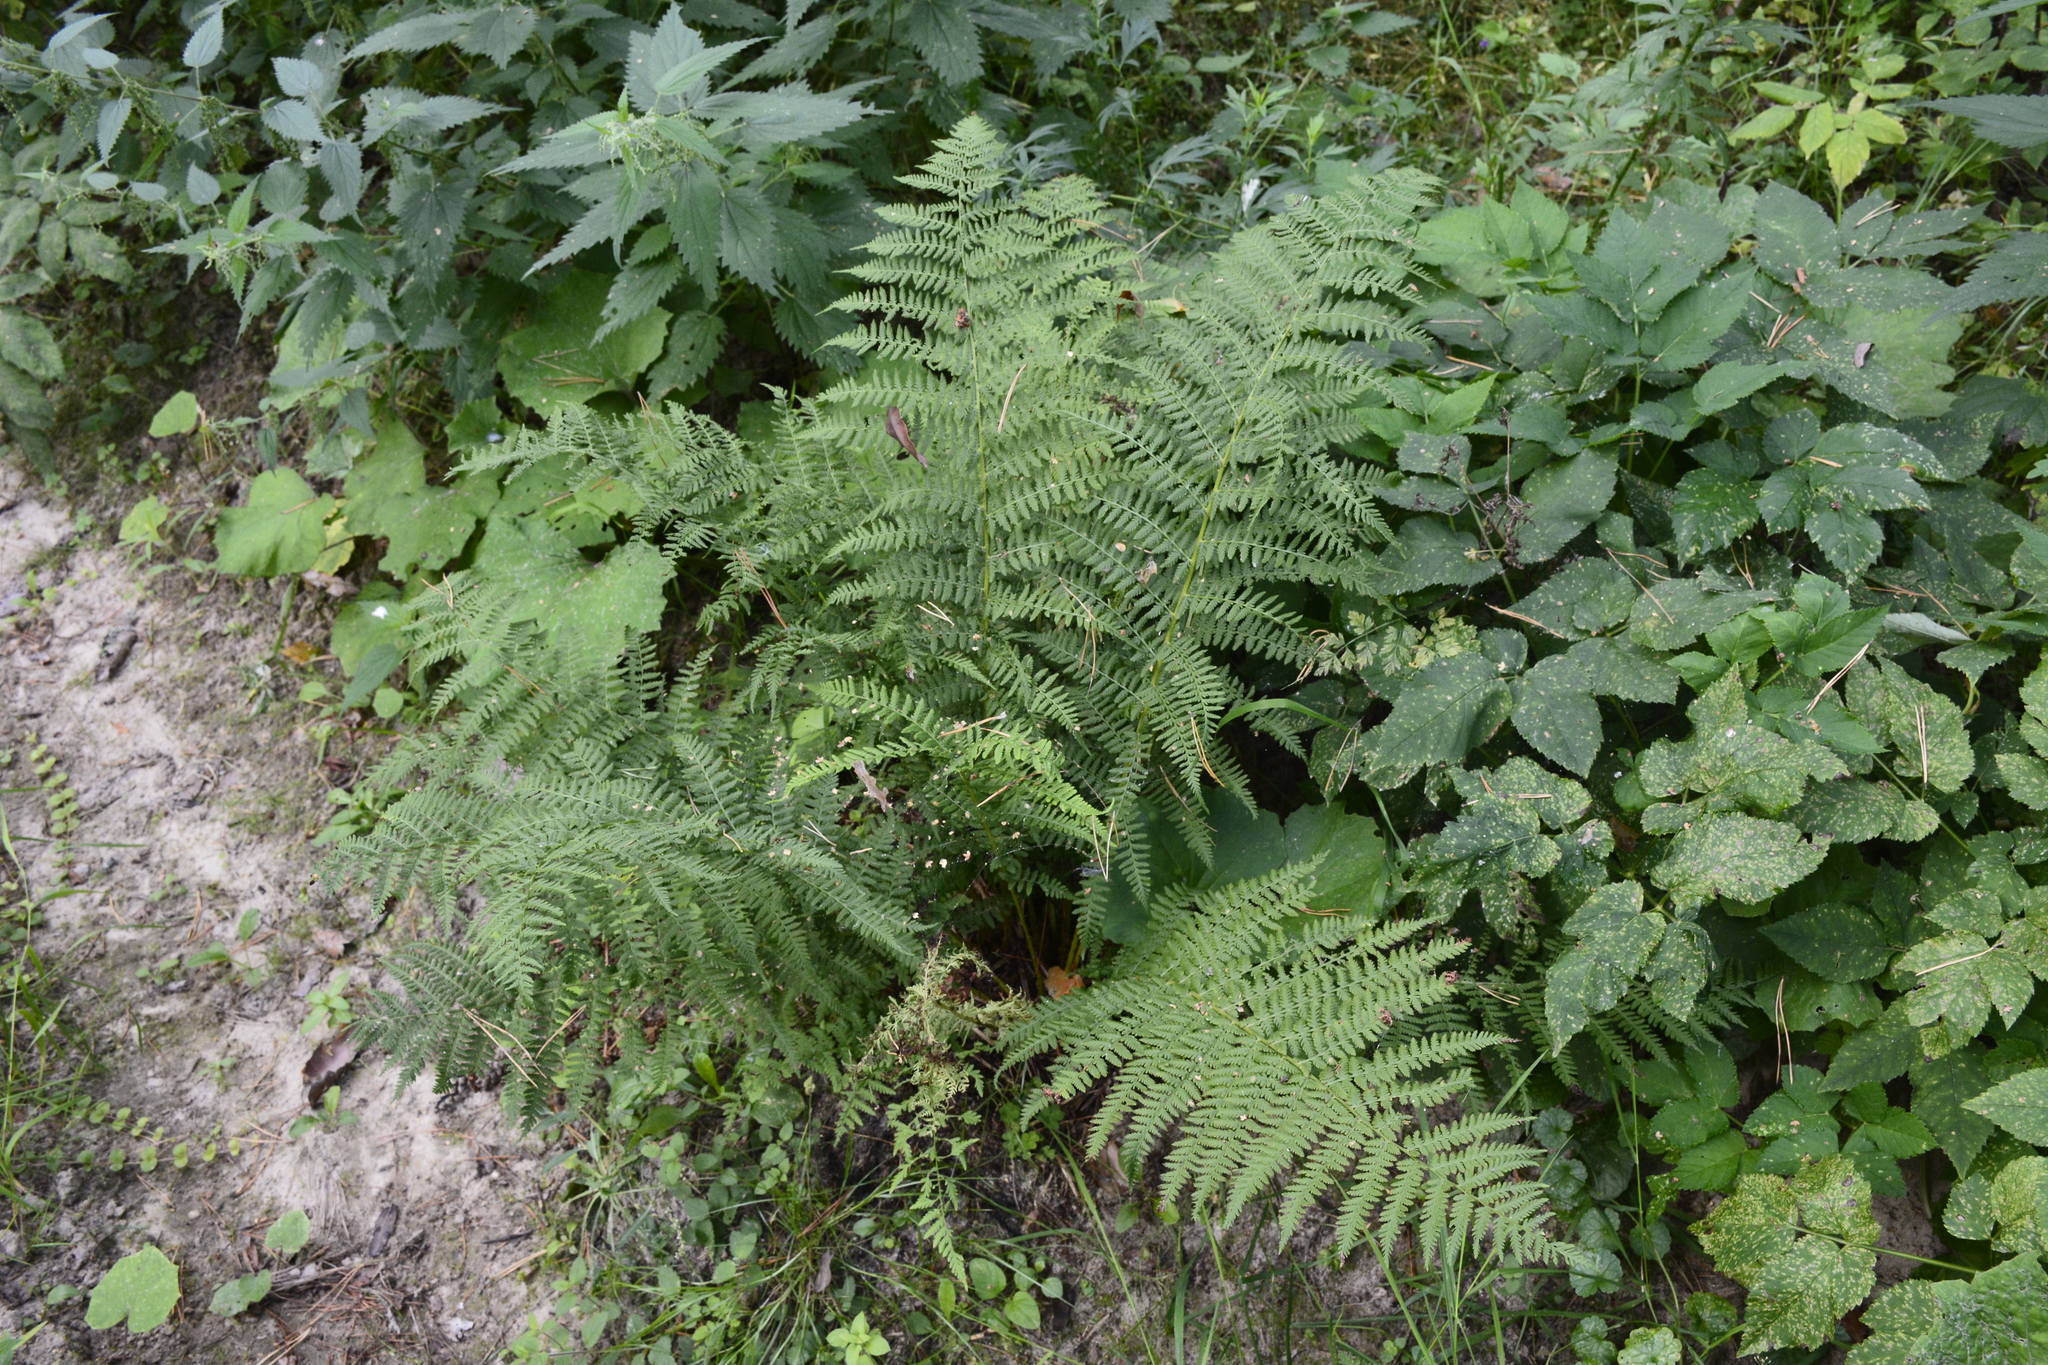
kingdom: Plantae
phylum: Tracheophyta
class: Polypodiopsida
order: Polypodiales
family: Athyriaceae
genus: Athyrium
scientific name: Athyrium filix-femina
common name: Lady fern
